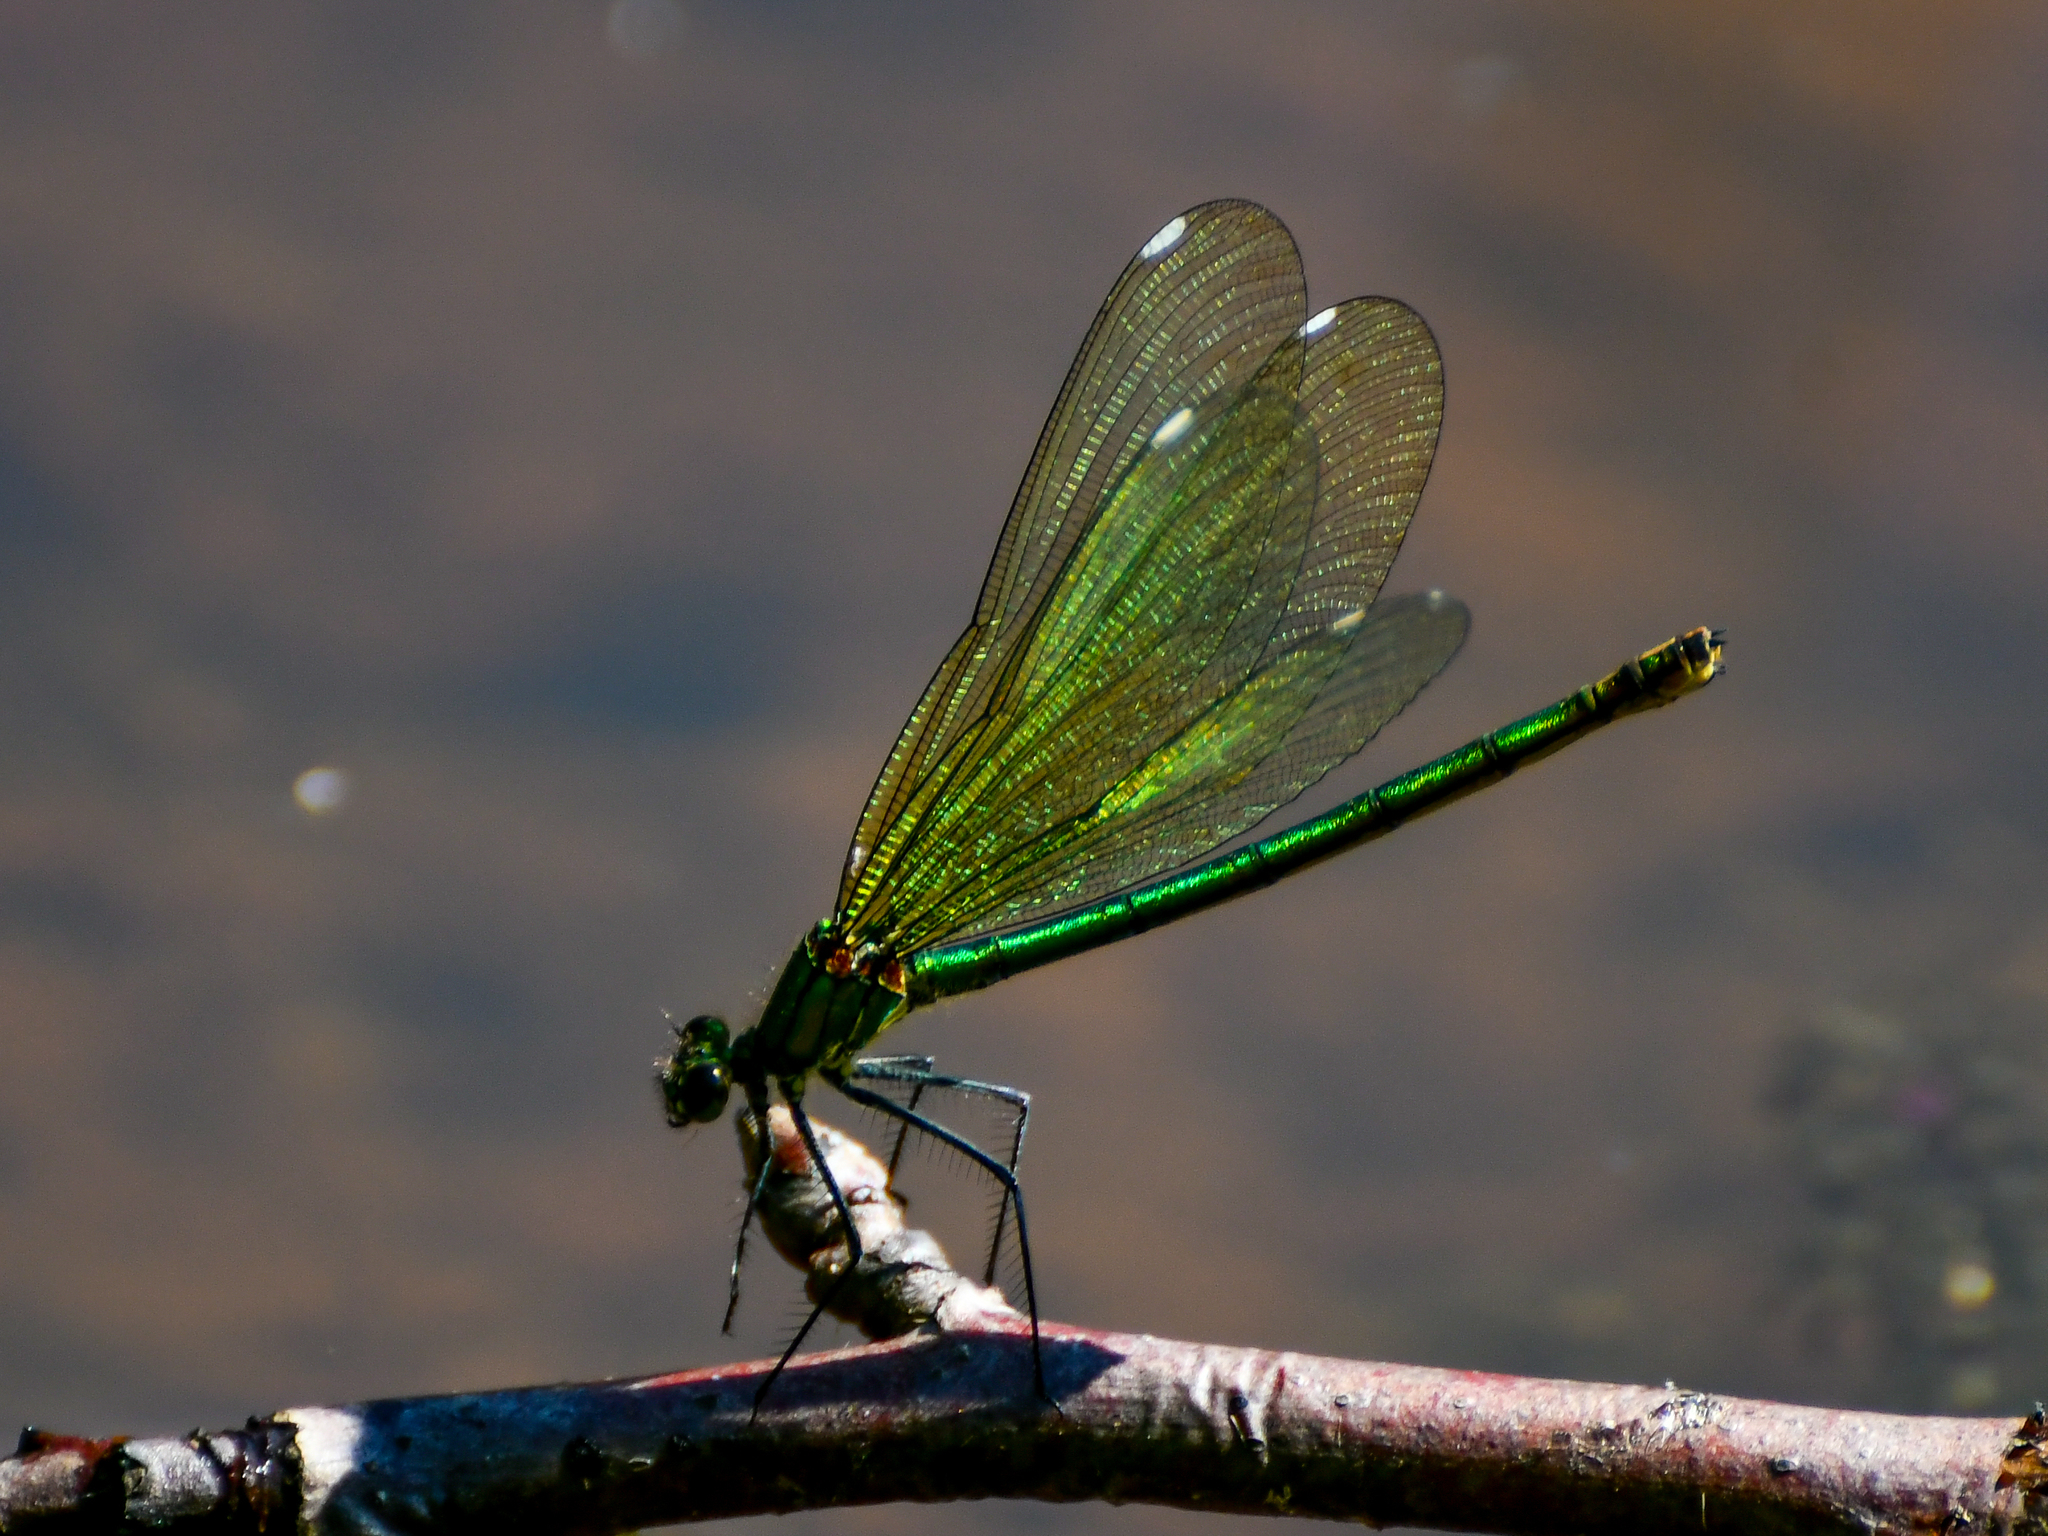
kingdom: Animalia
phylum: Arthropoda
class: Insecta
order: Odonata
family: Calopterygidae
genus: Calopteryx
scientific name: Calopteryx splendens
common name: Banded demoiselle
